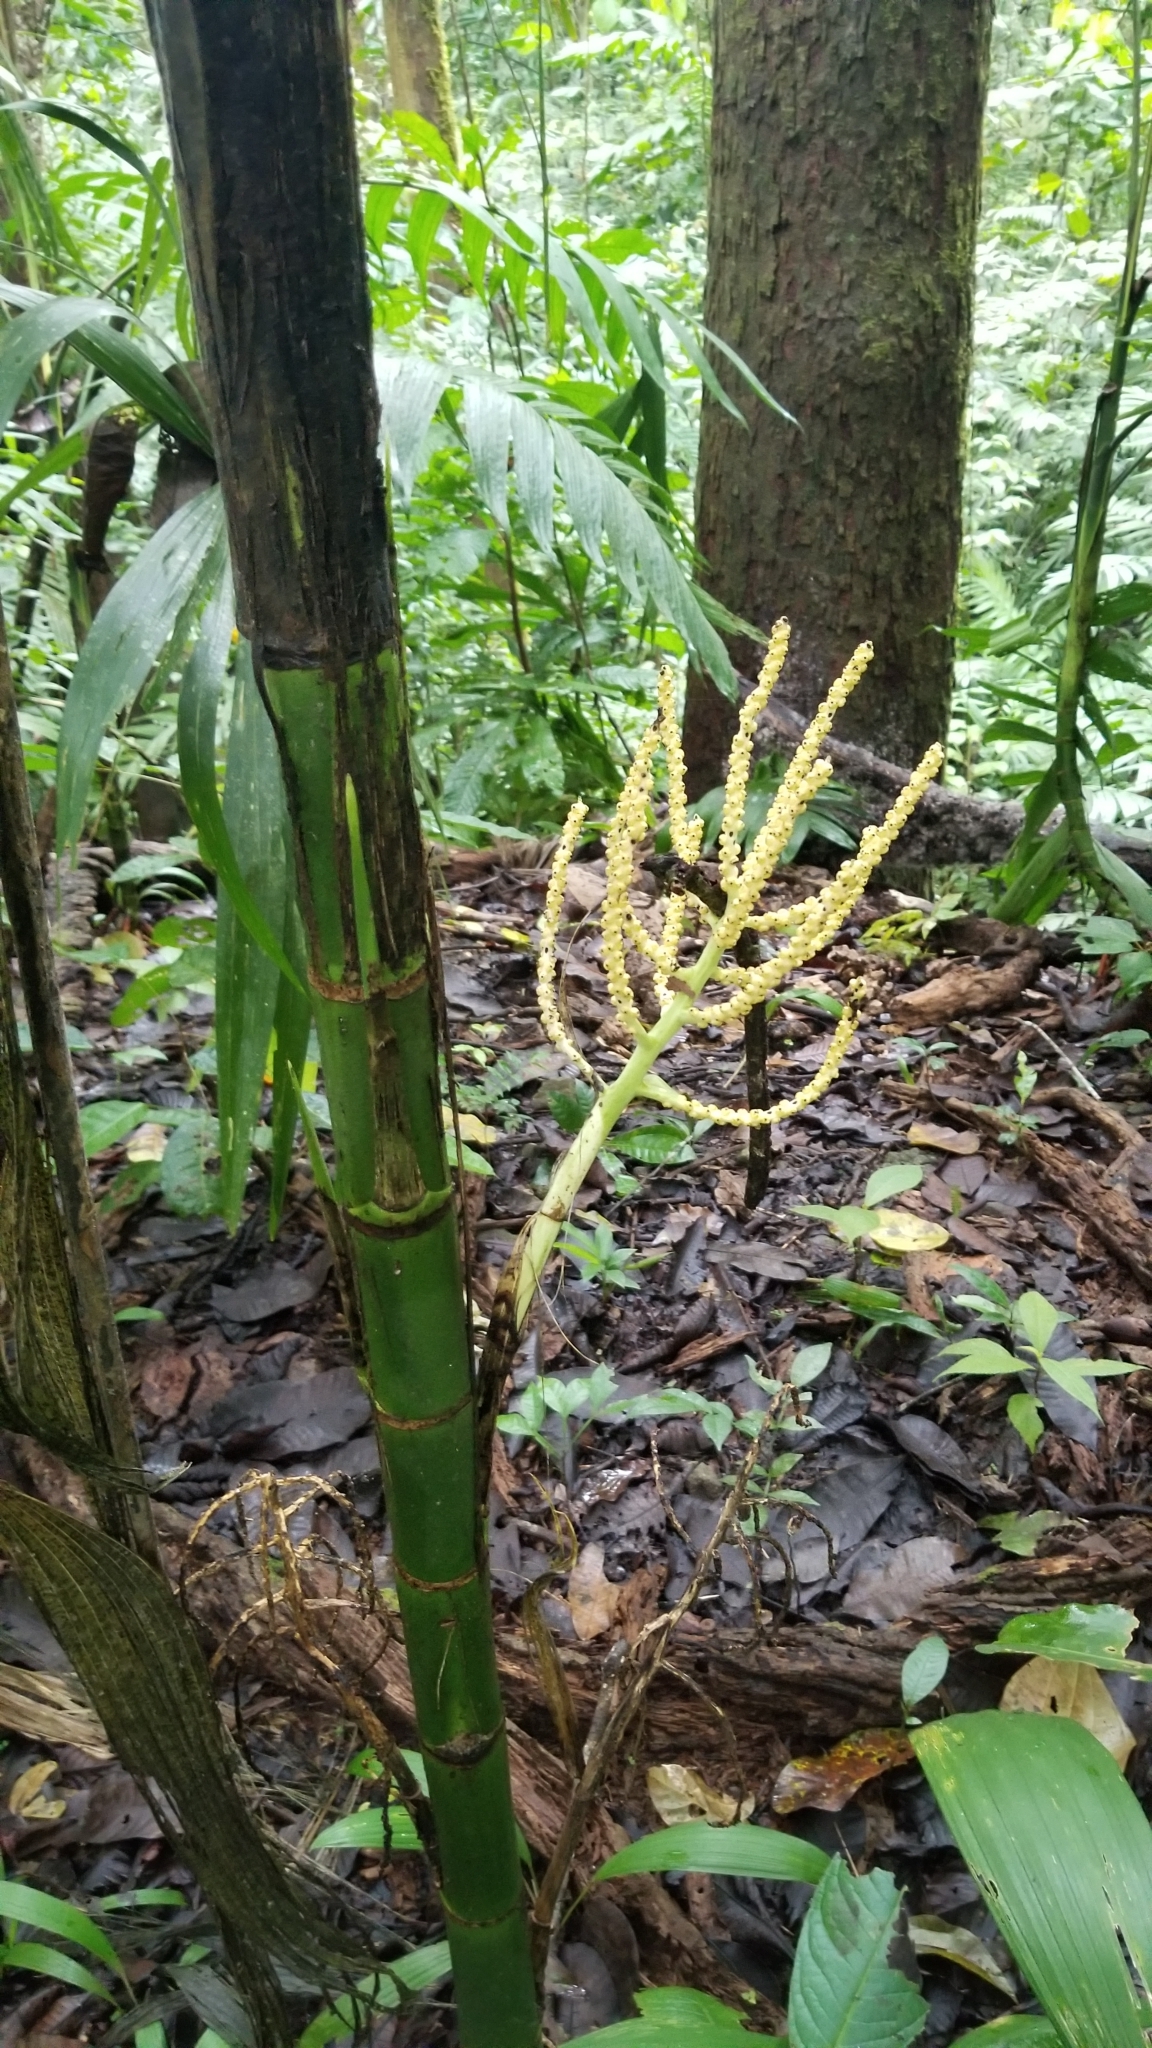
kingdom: Plantae
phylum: Tracheophyta
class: Liliopsida
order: Arecales
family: Arecaceae
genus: Chamaedorea
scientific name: Chamaedorea tepejilote
